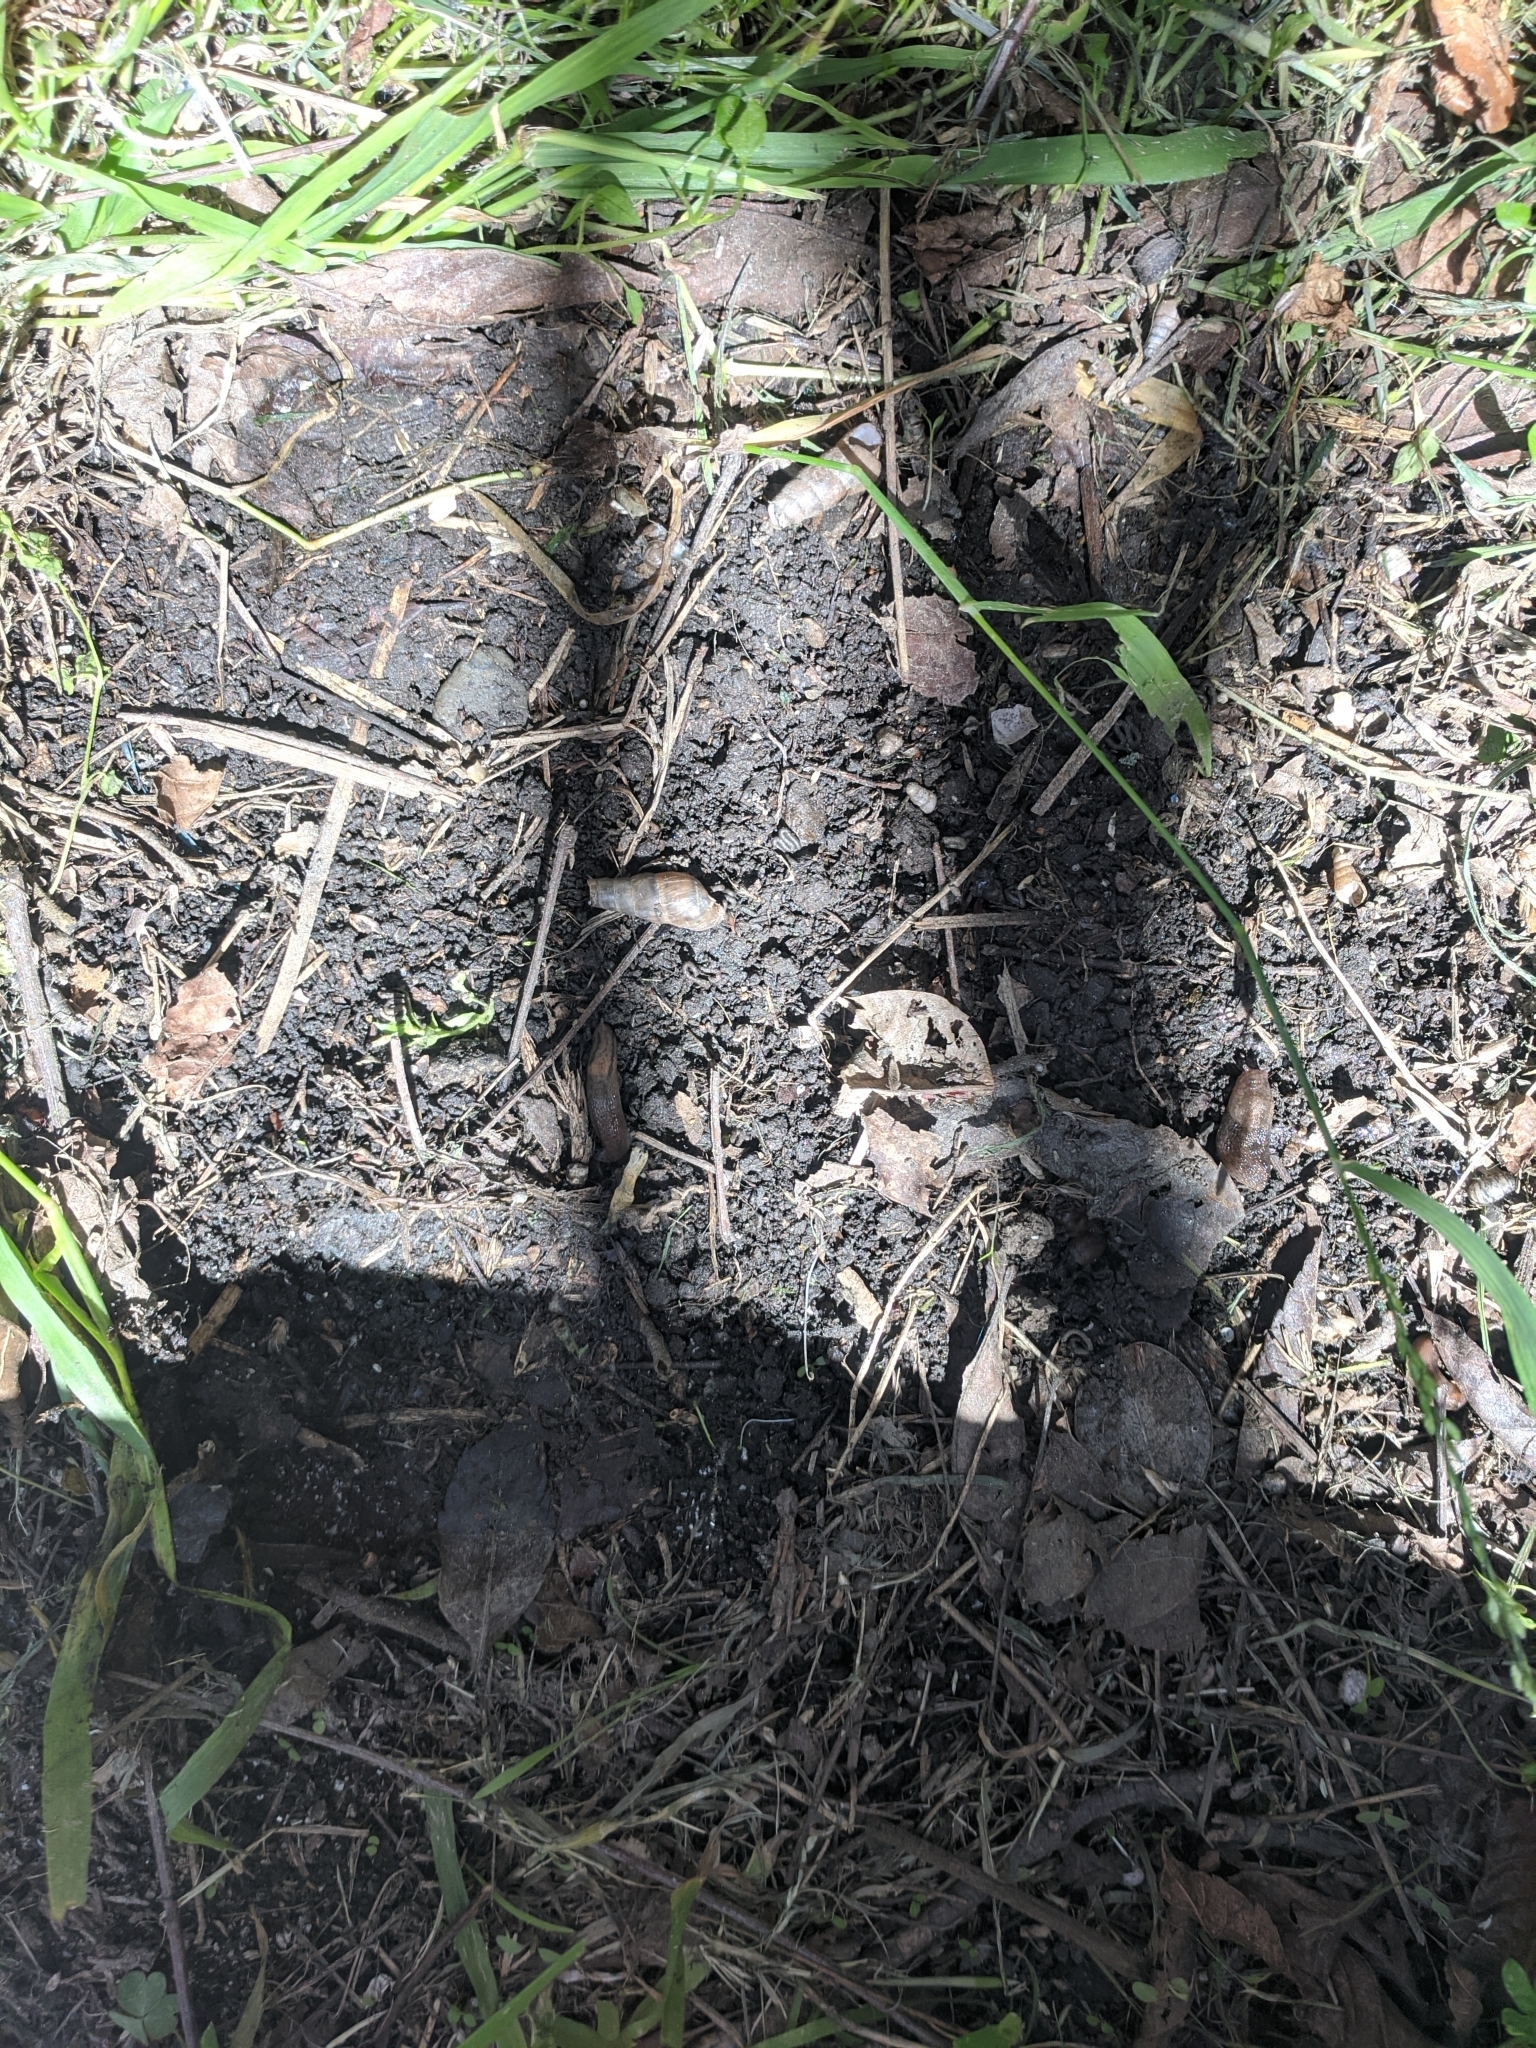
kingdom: Animalia
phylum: Mollusca
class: Gastropoda
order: Stylommatophora
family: Limacidae
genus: Ambigolimax
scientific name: Ambigolimax
